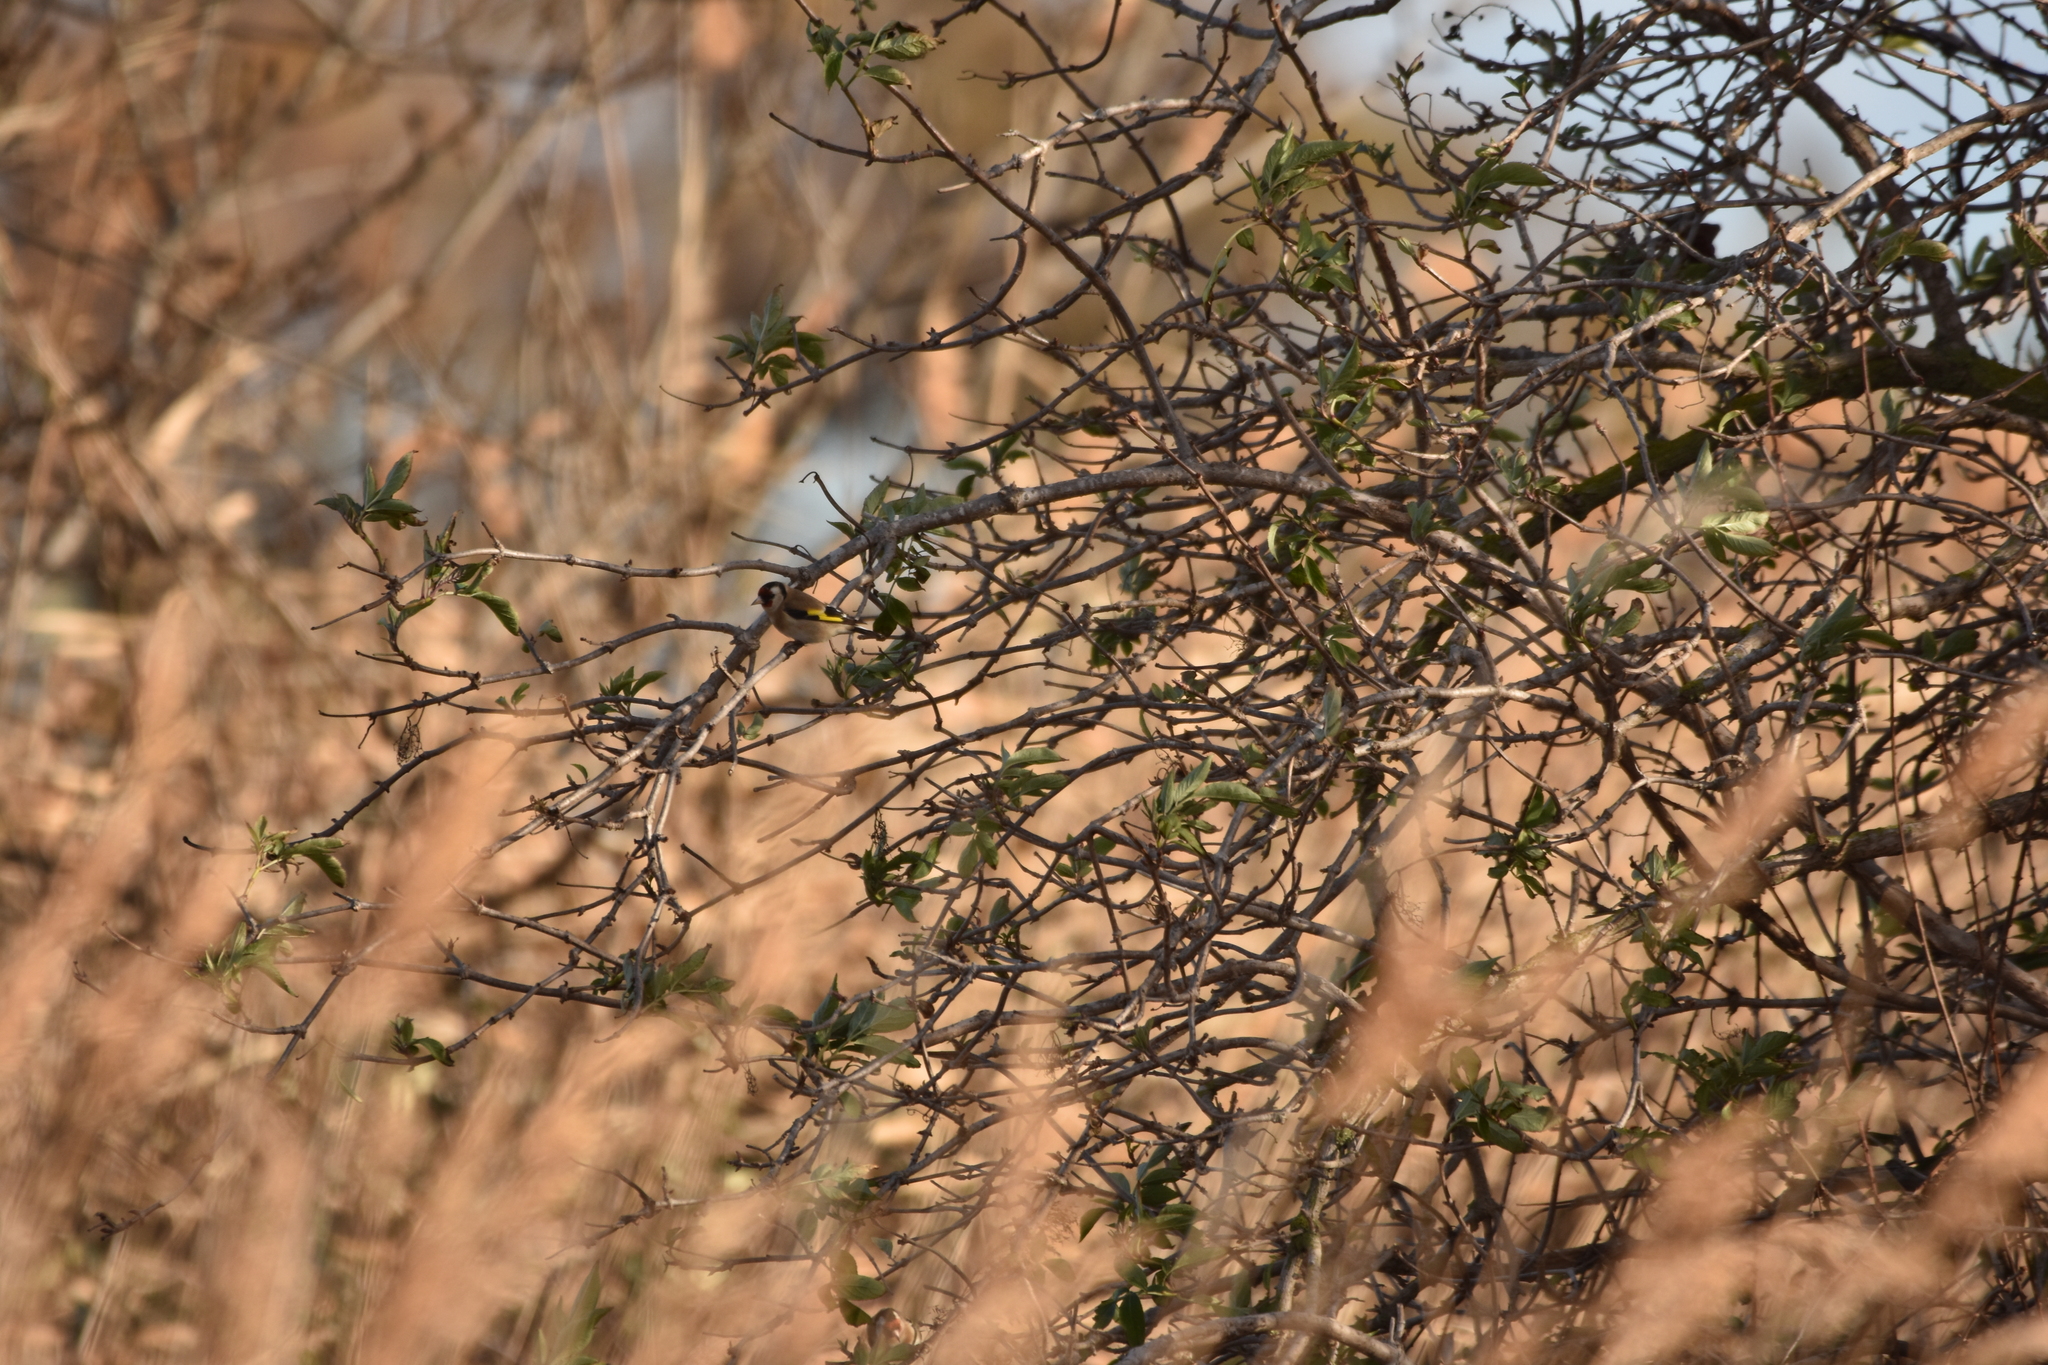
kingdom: Animalia
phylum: Chordata
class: Aves
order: Passeriformes
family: Fringillidae
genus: Carduelis
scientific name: Carduelis carduelis
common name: European goldfinch
